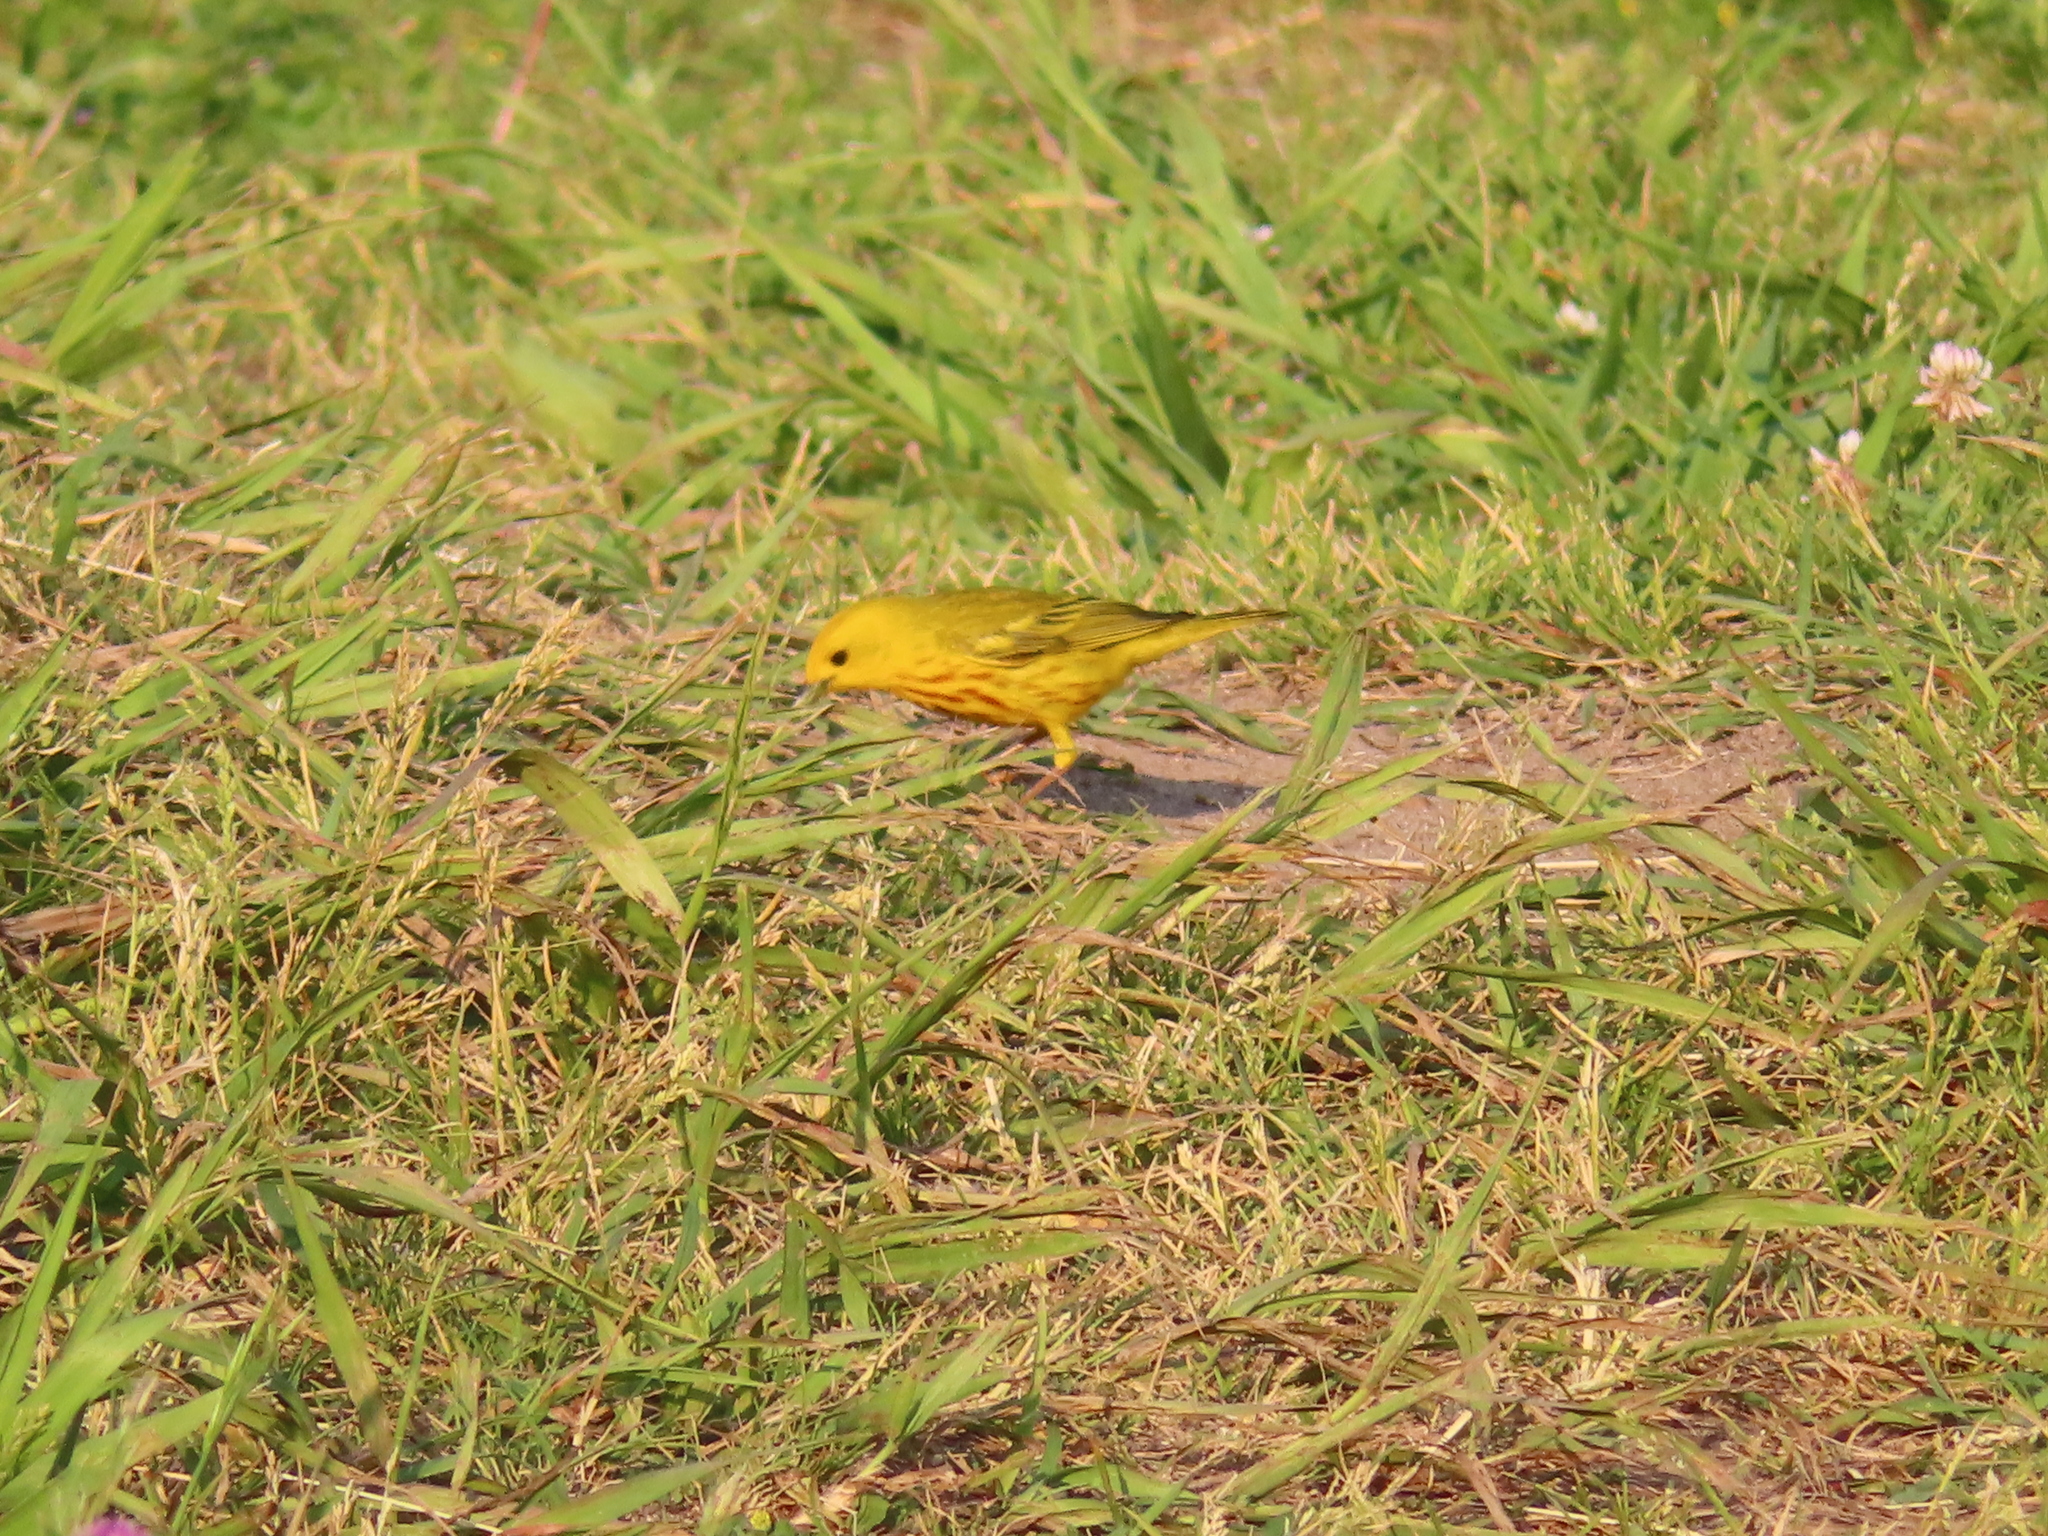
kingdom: Animalia
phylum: Chordata
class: Aves
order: Passeriformes
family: Parulidae
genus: Setophaga
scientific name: Setophaga petechia
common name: Yellow warbler
